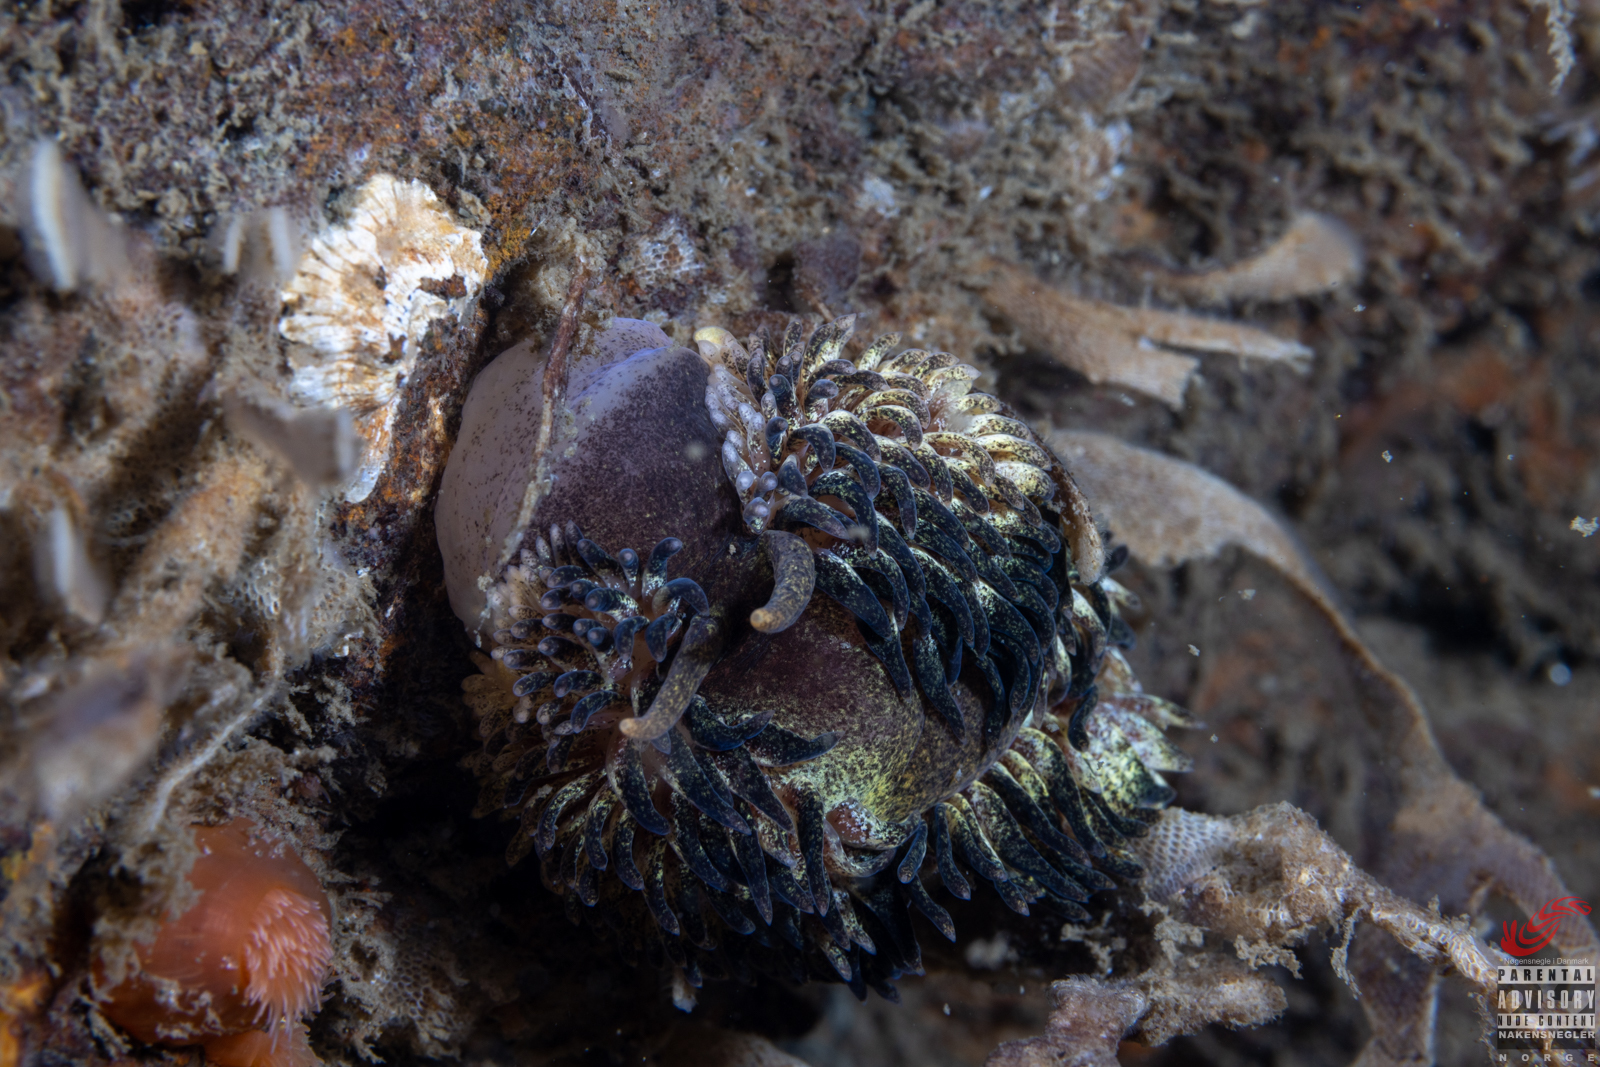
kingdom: Animalia
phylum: Mollusca
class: Gastropoda
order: Nudibranchia
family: Aeolidiidae
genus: Aeolidia
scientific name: Aeolidia papillosa
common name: Common grey sea slug
